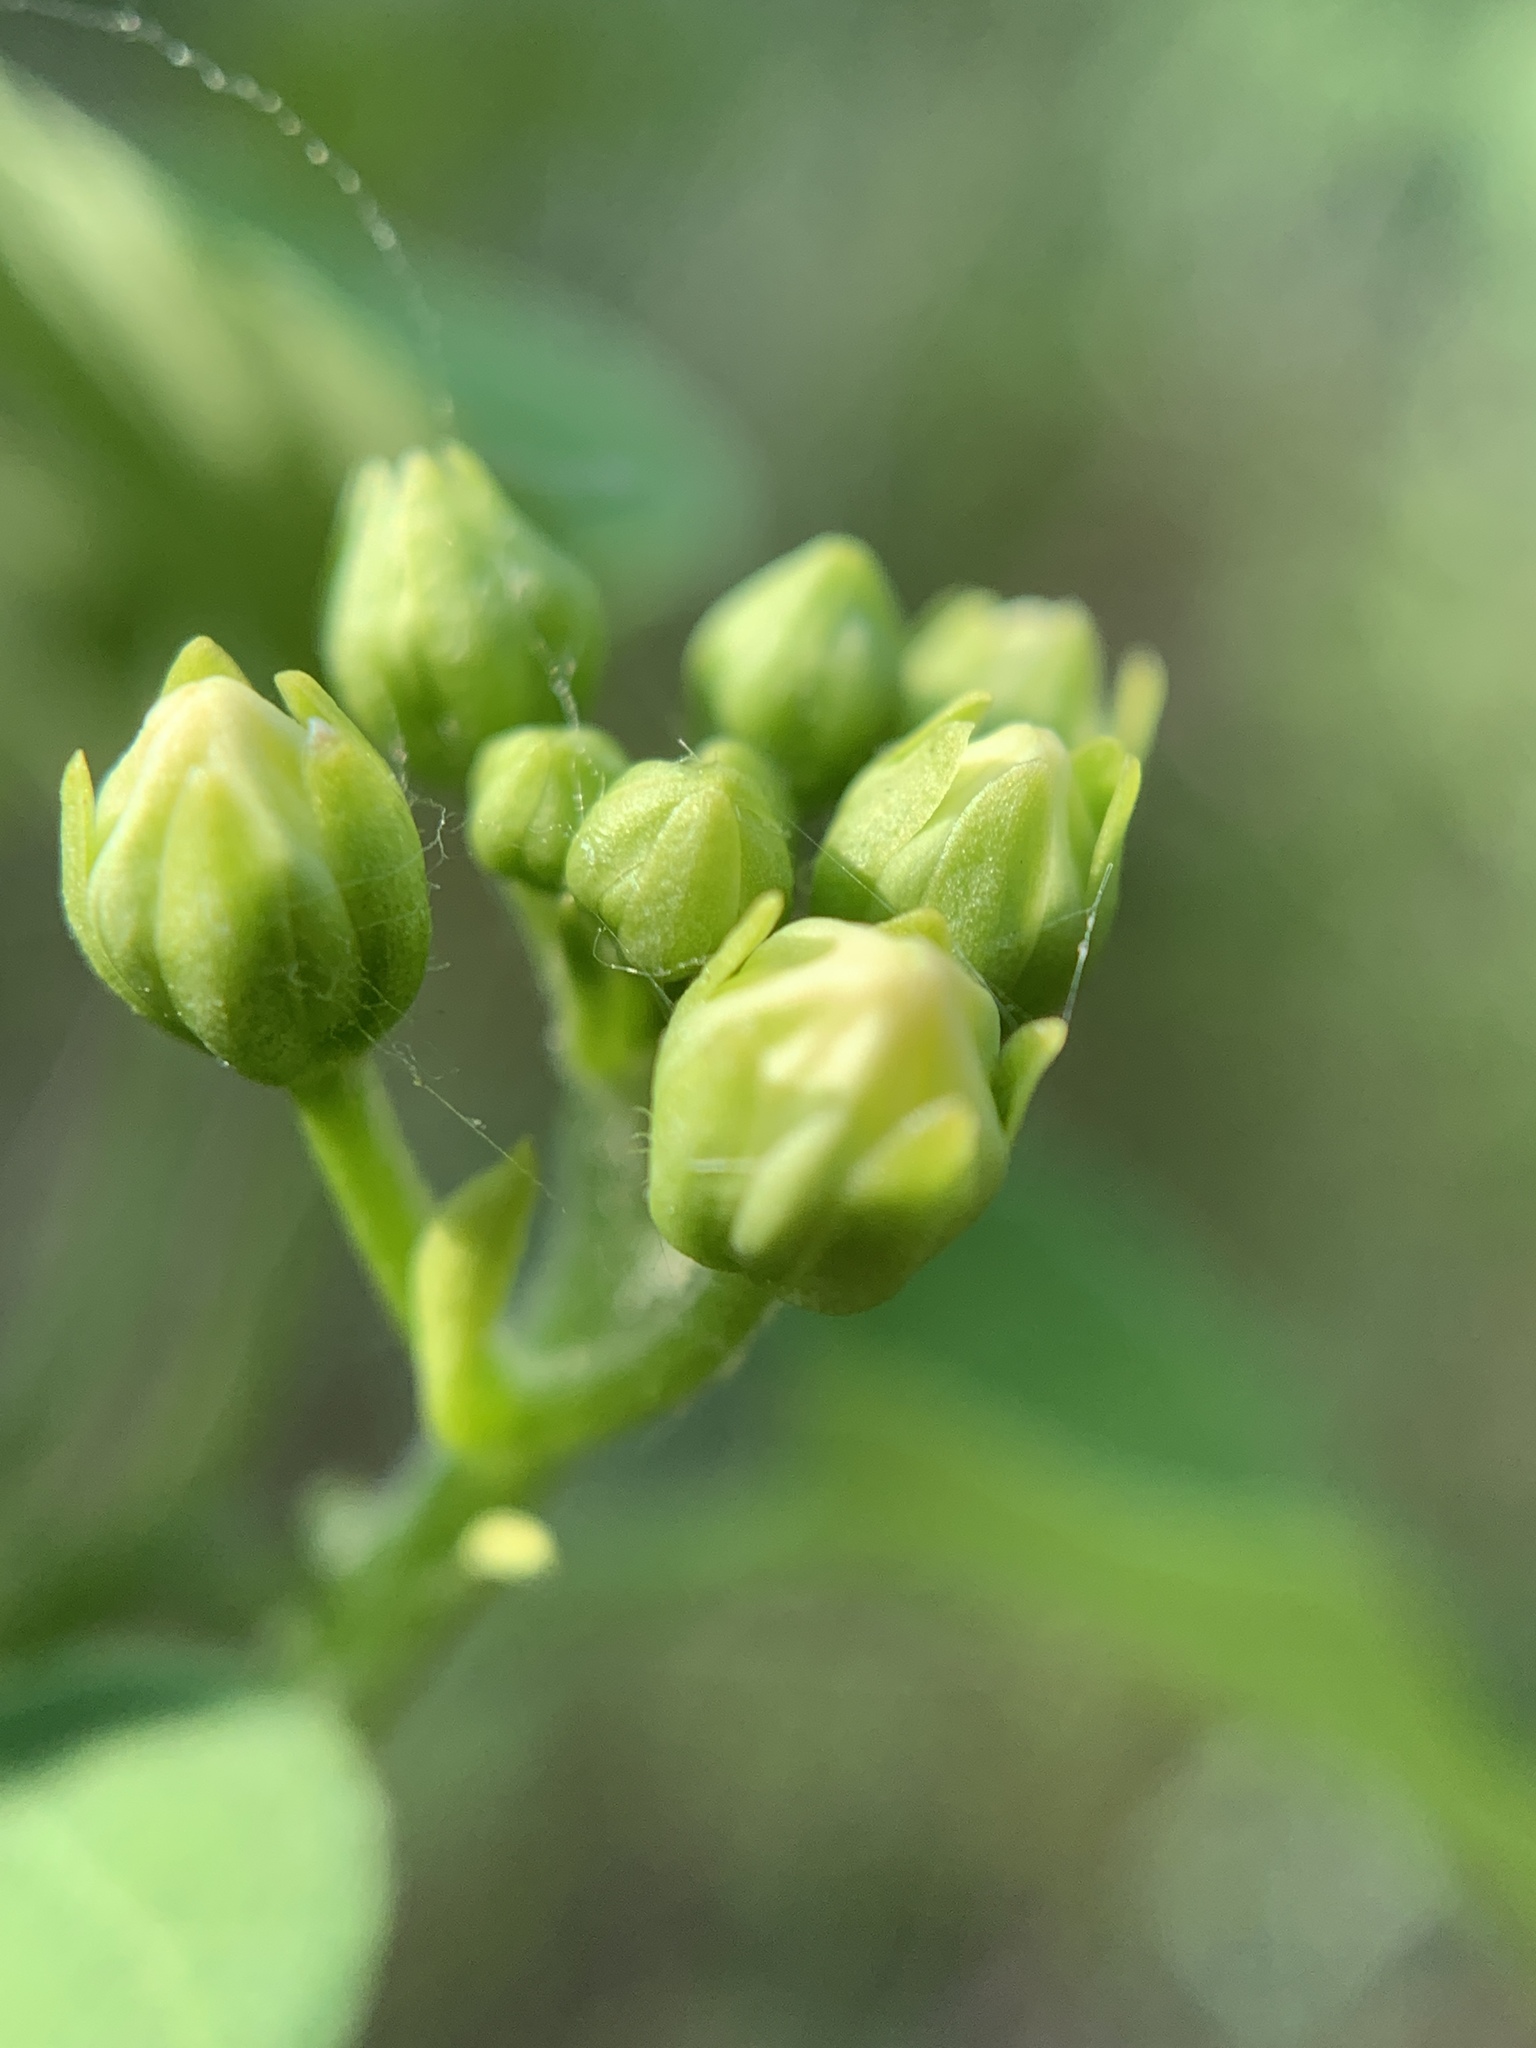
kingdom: Plantae
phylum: Tracheophyta
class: Magnoliopsida
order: Gentianales
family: Apocynaceae
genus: Dictyanthus
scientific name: Dictyanthus reticulatus
